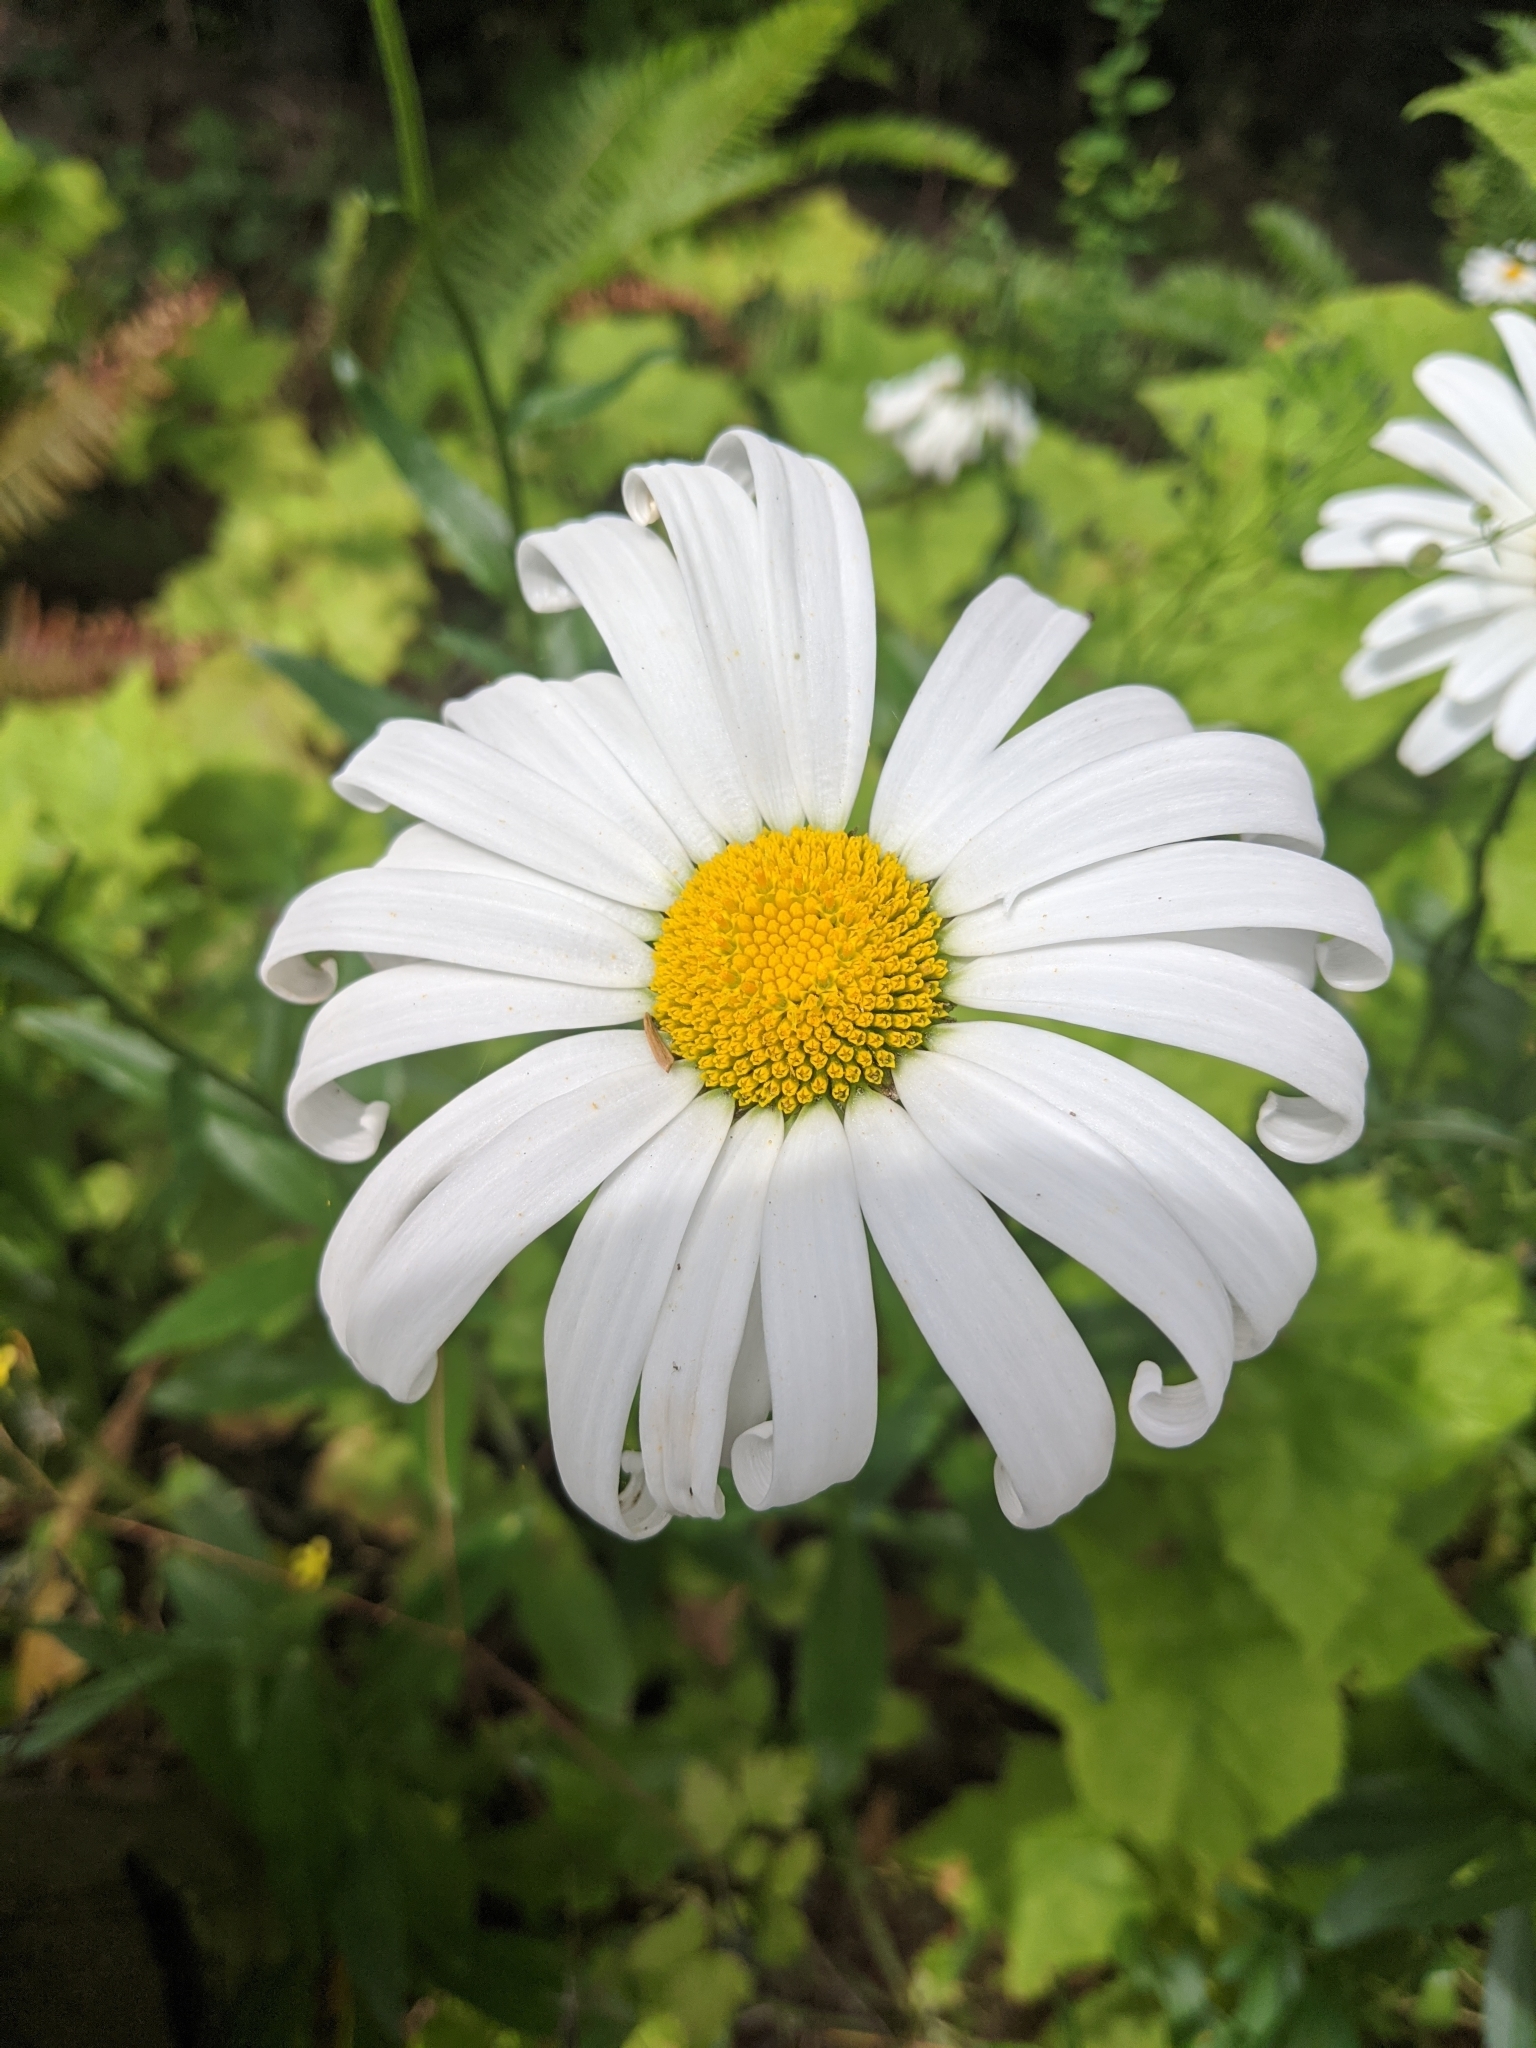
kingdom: Plantae
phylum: Tracheophyta
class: Magnoliopsida
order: Asterales
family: Asteraceae
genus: Leucanthemum
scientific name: Leucanthemum vulgare
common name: Oxeye daisy
